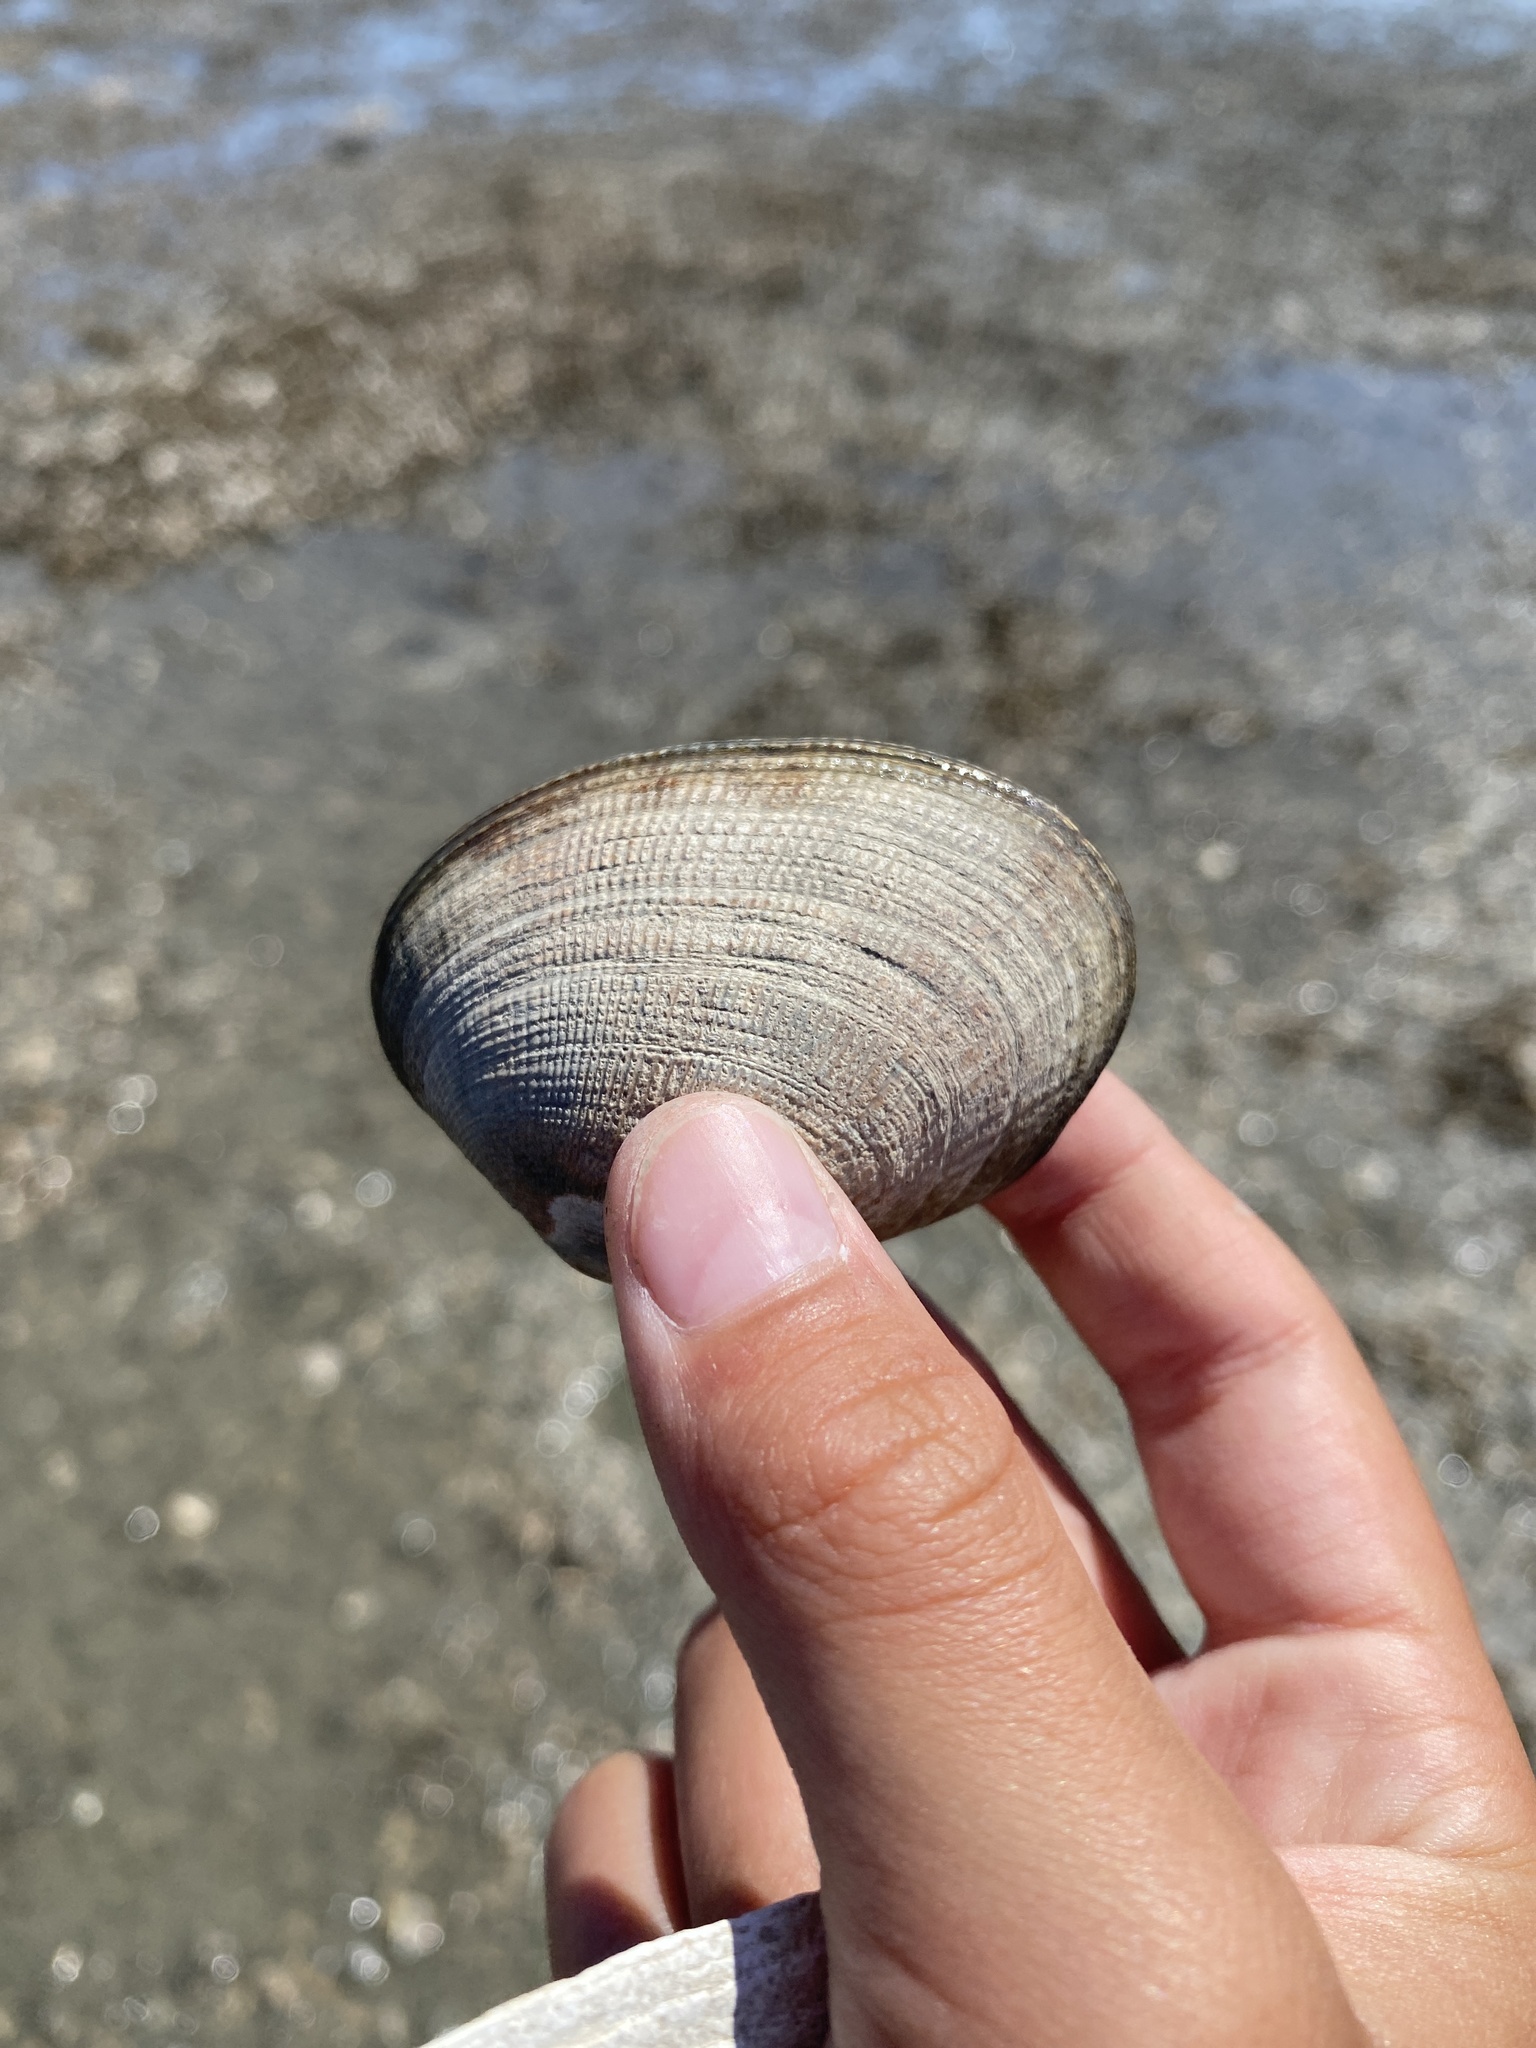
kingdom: Animalia
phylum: Mollusca
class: Bivalvia
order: Venerida
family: Veneridae
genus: Ruditapes
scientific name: Ruditapes philippinarum
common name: Manila clam
